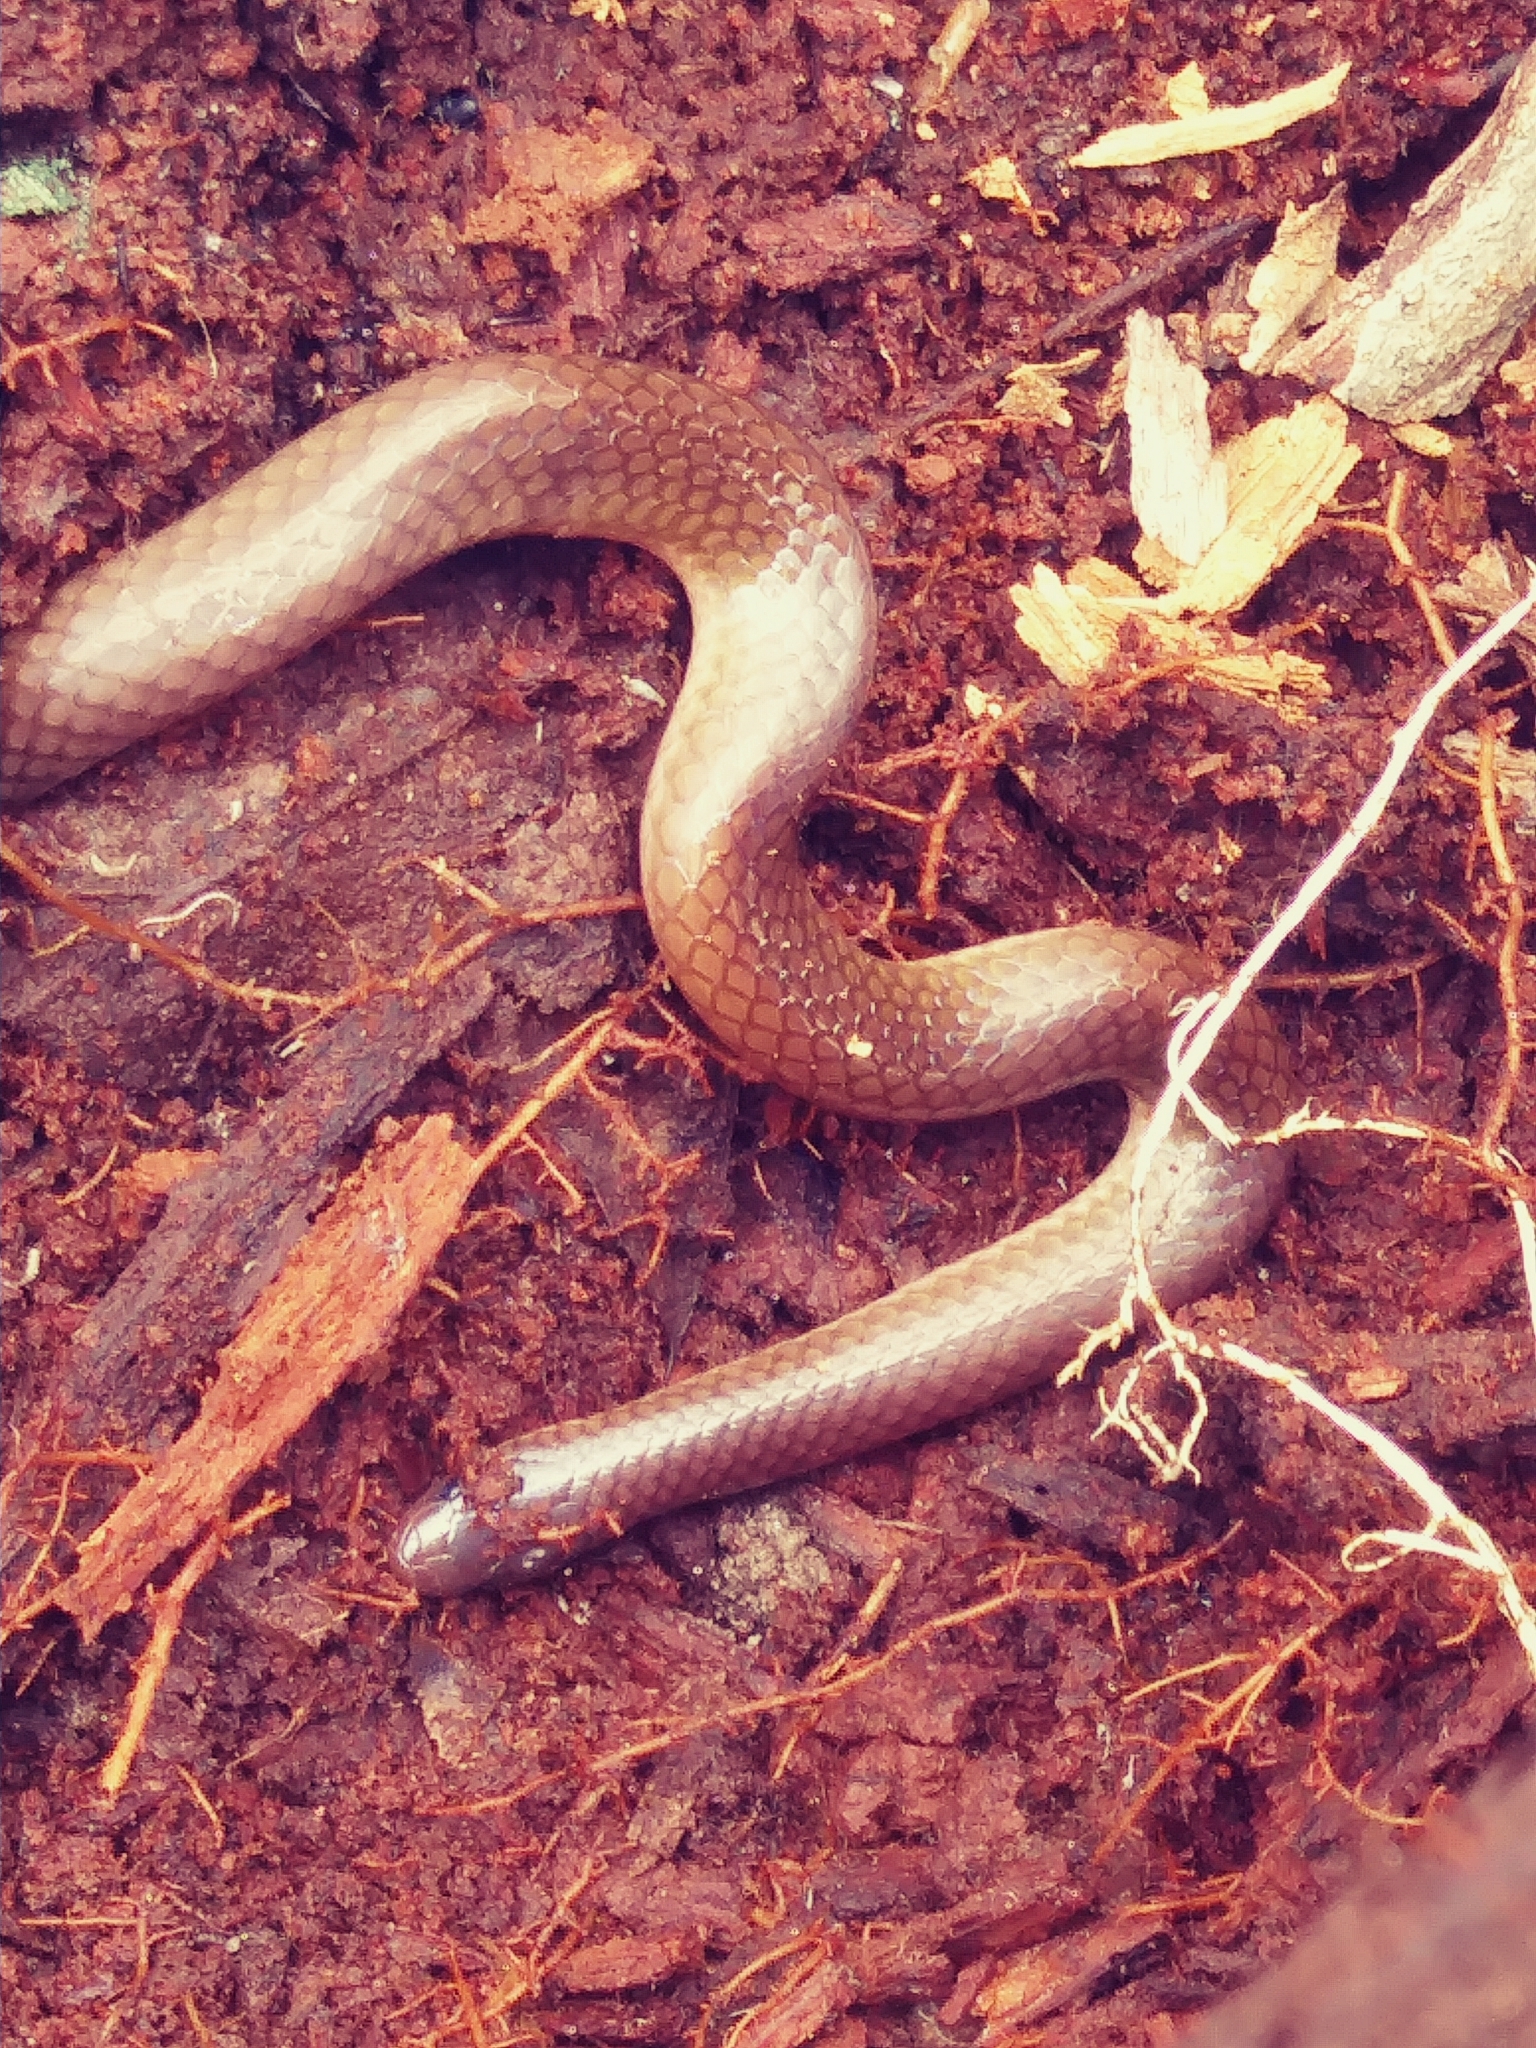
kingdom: Animalia
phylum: Chordata
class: Squamata
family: Colubridae
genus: Carphophis
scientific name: Carphophis amoenus
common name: Eastern worm snake
